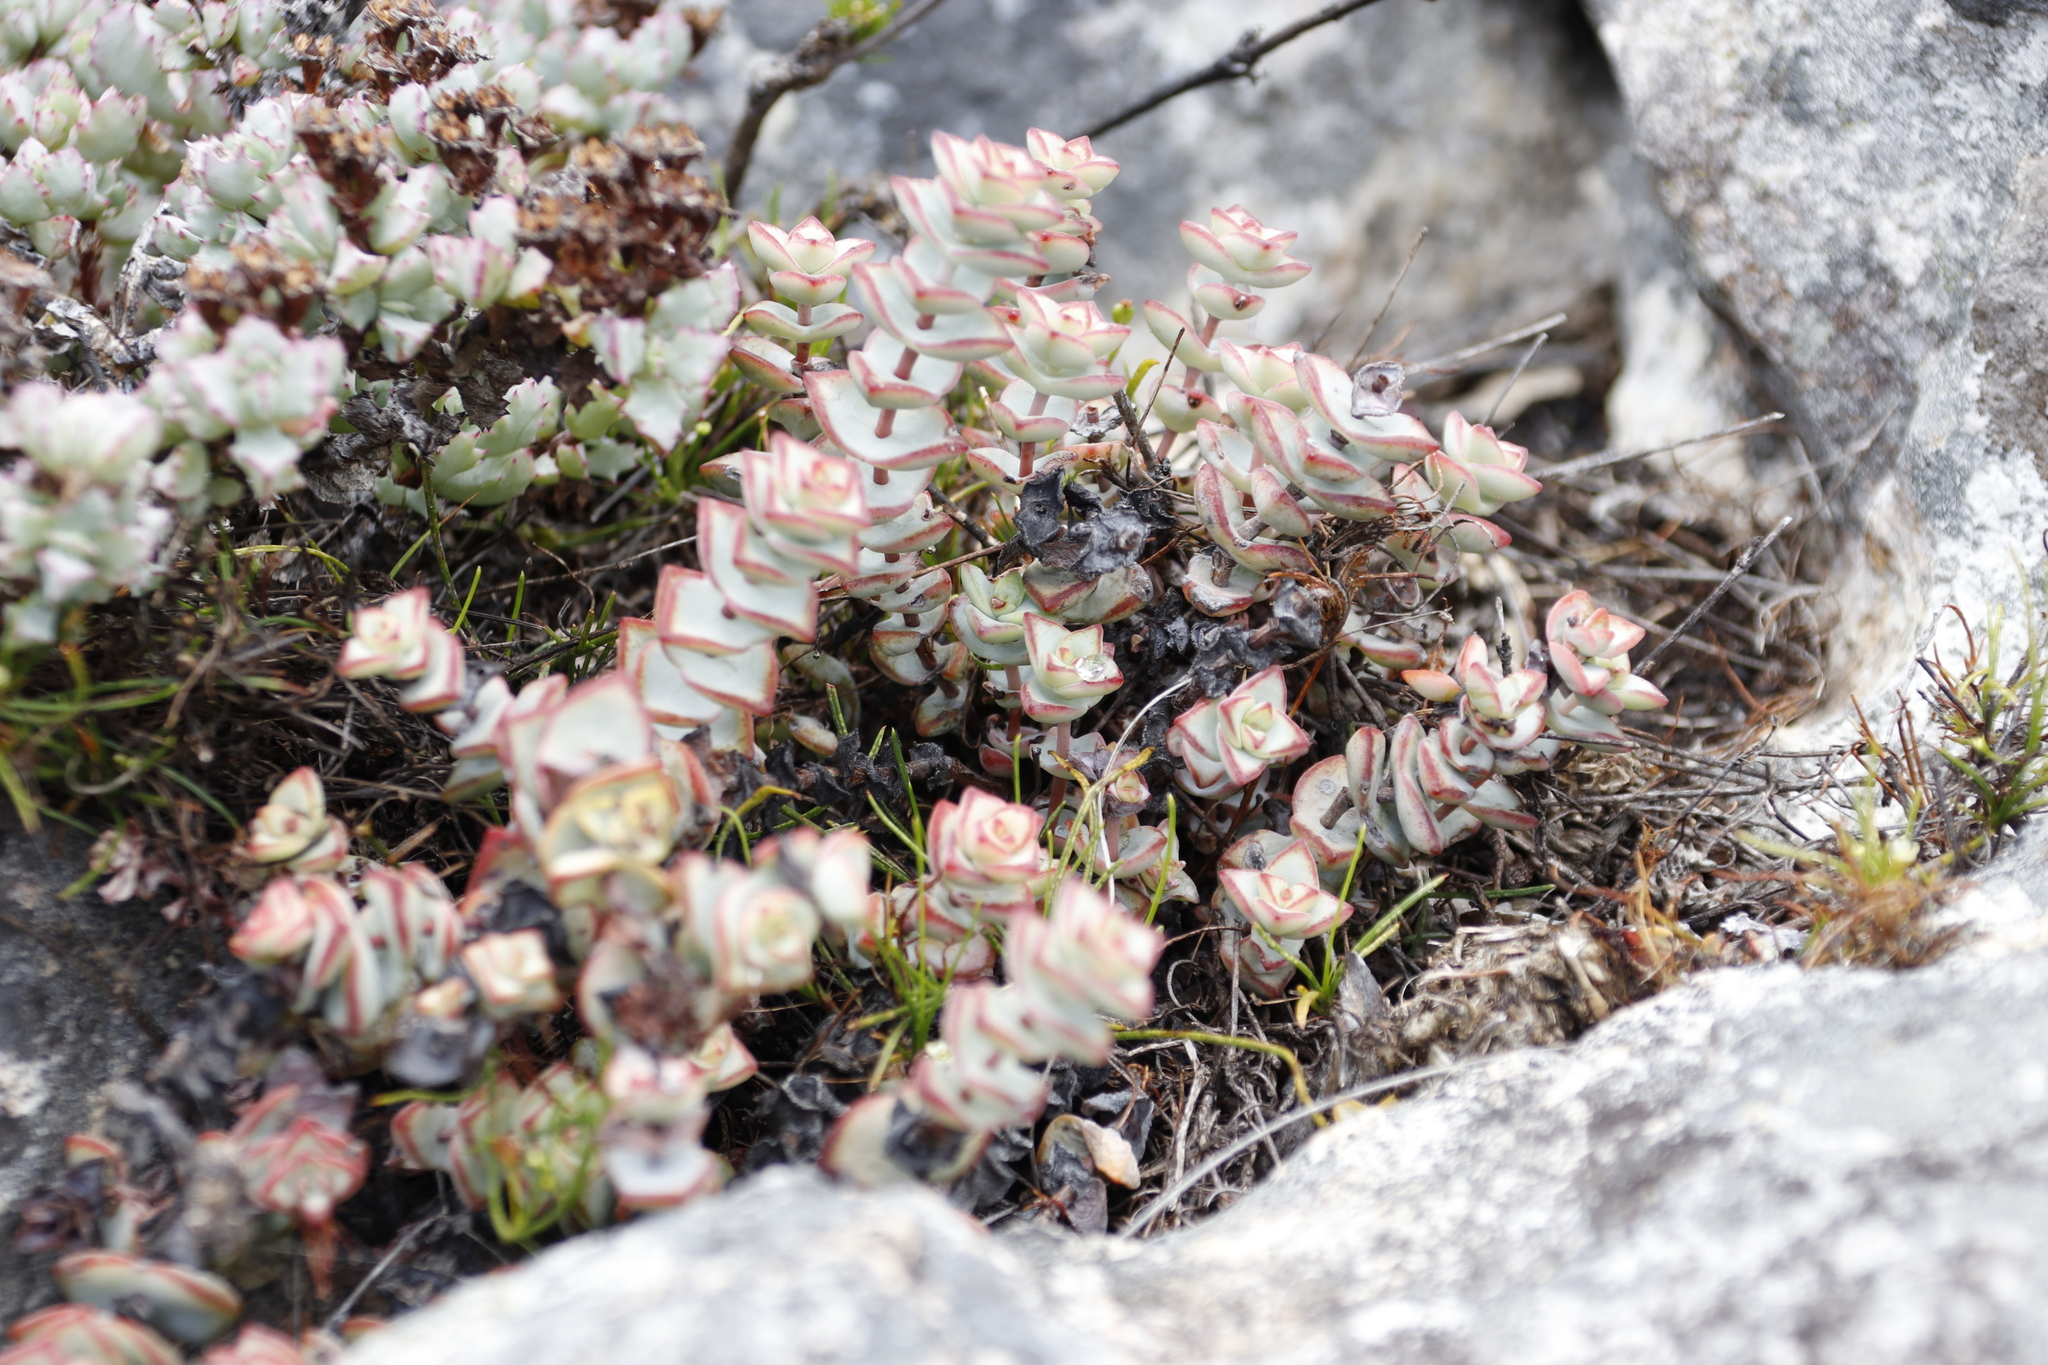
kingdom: Plantae
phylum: Tracheophyta
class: Magnoliopsida
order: Saxifragales
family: Crassulaceae
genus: Crassula
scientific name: Crassula rupestris
